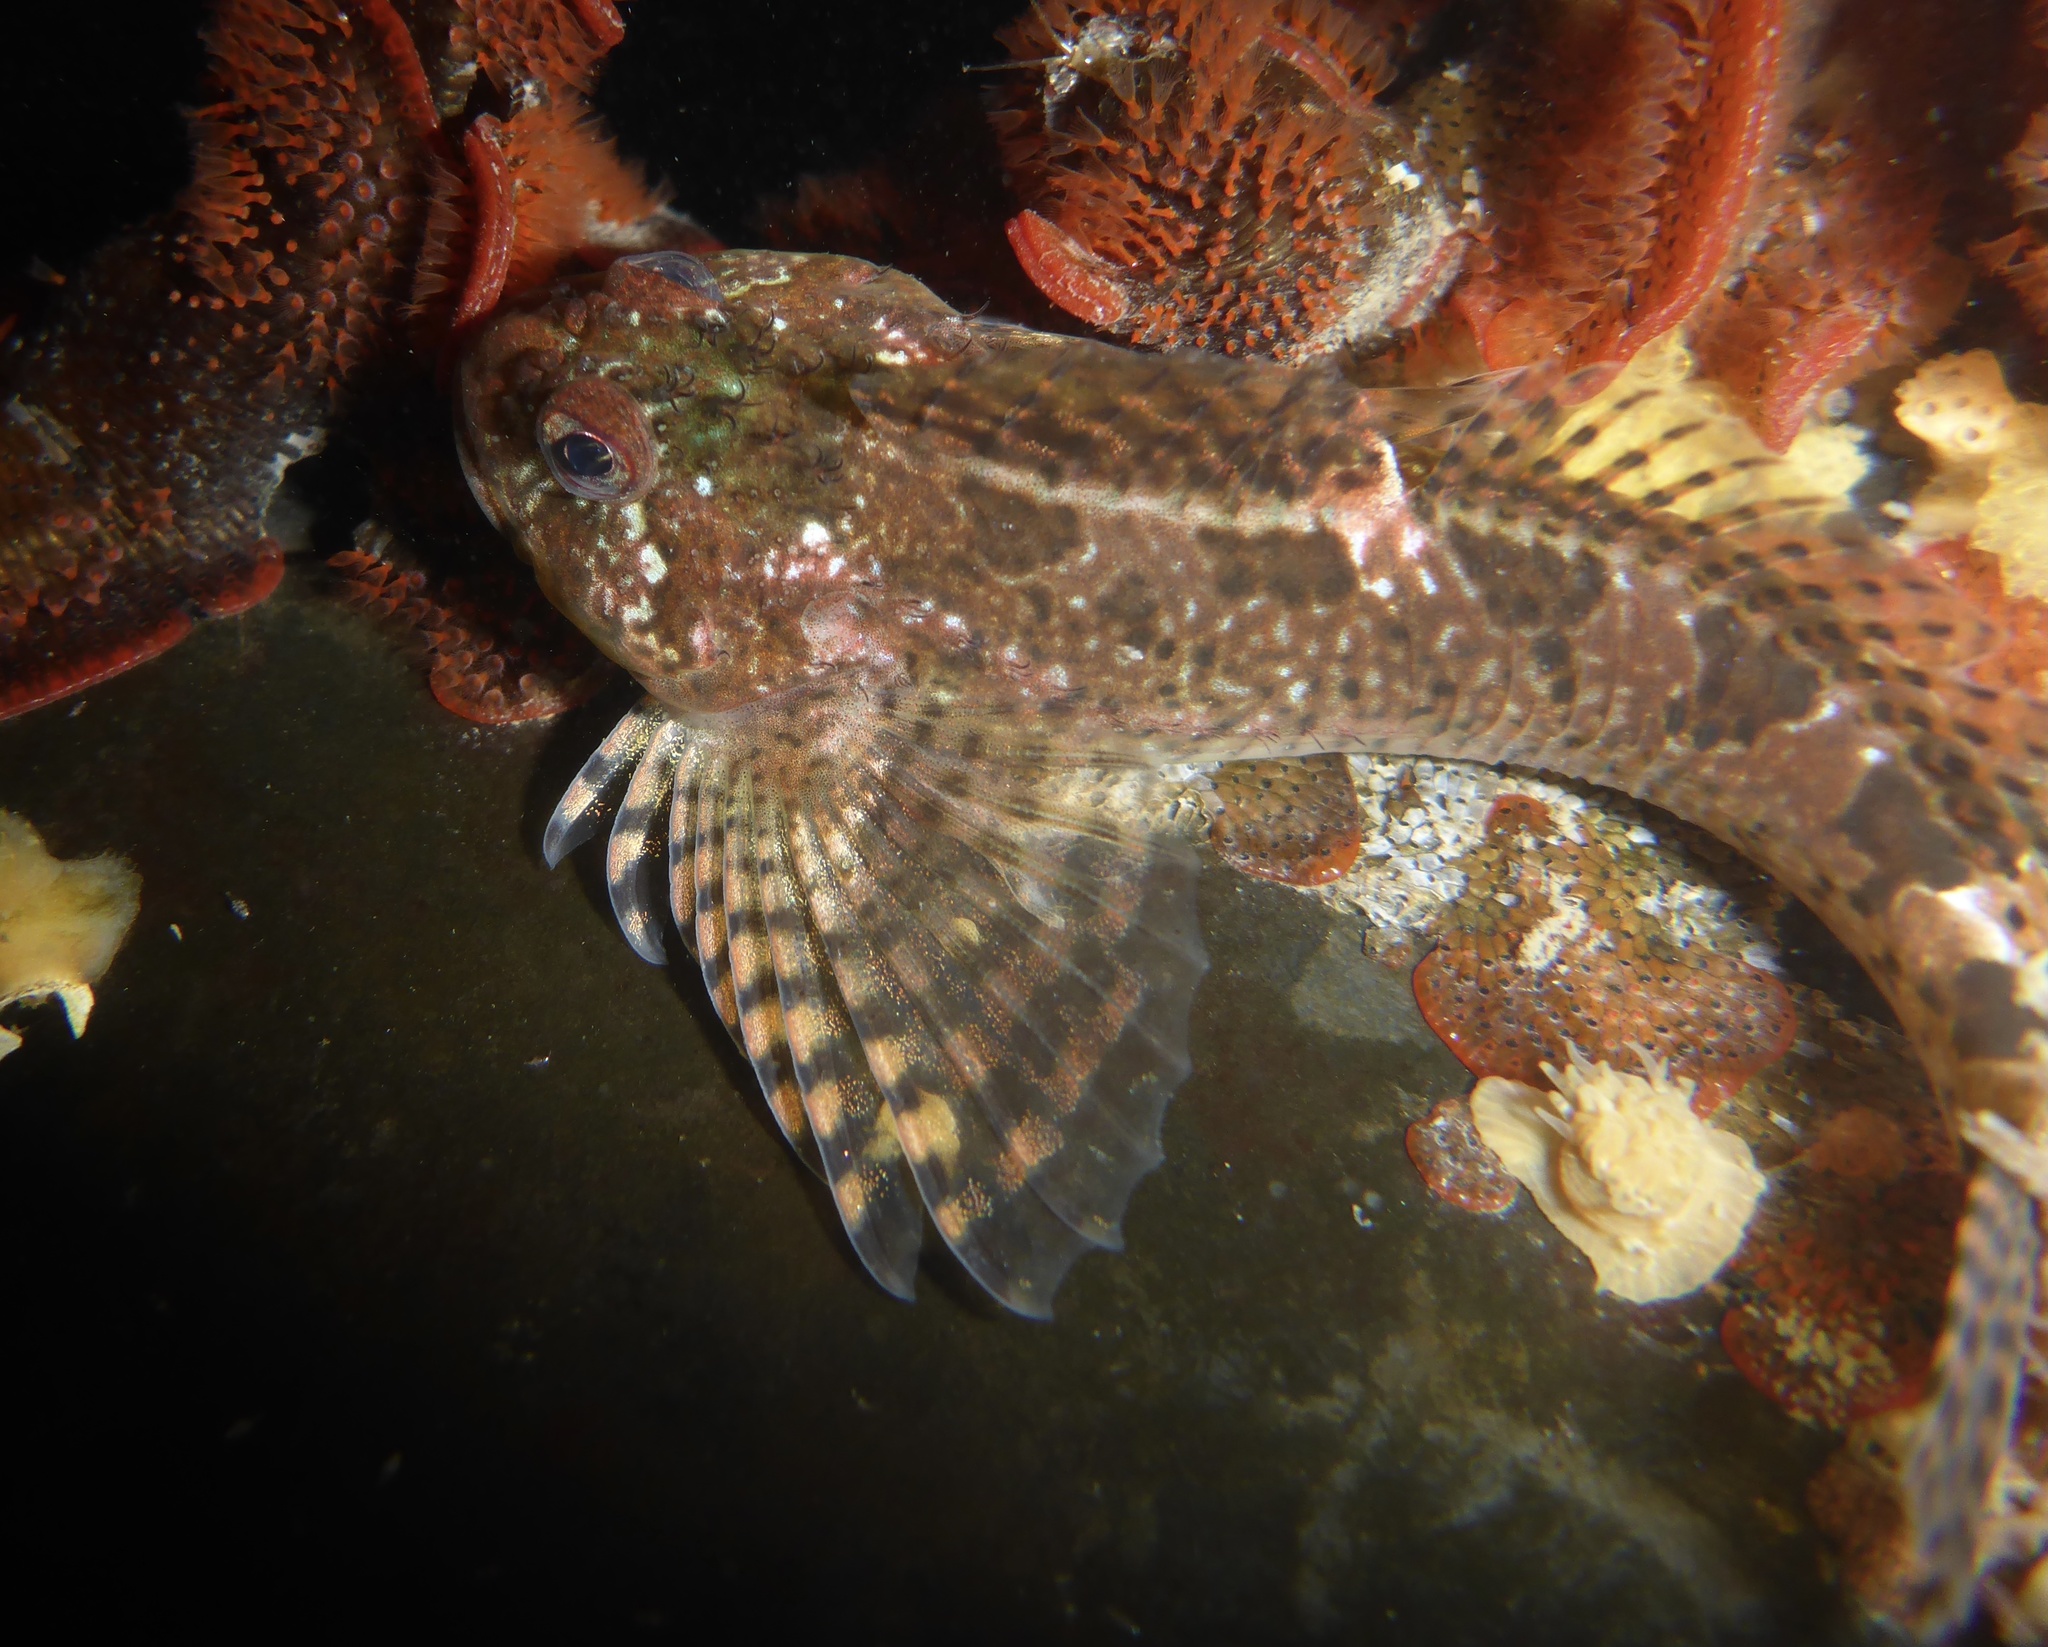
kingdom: Animalia
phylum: Chordata
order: Scorpaeniformes
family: Cottidae
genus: Clinocottus
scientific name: Clinocottus recalvus
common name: Bald sculpin
